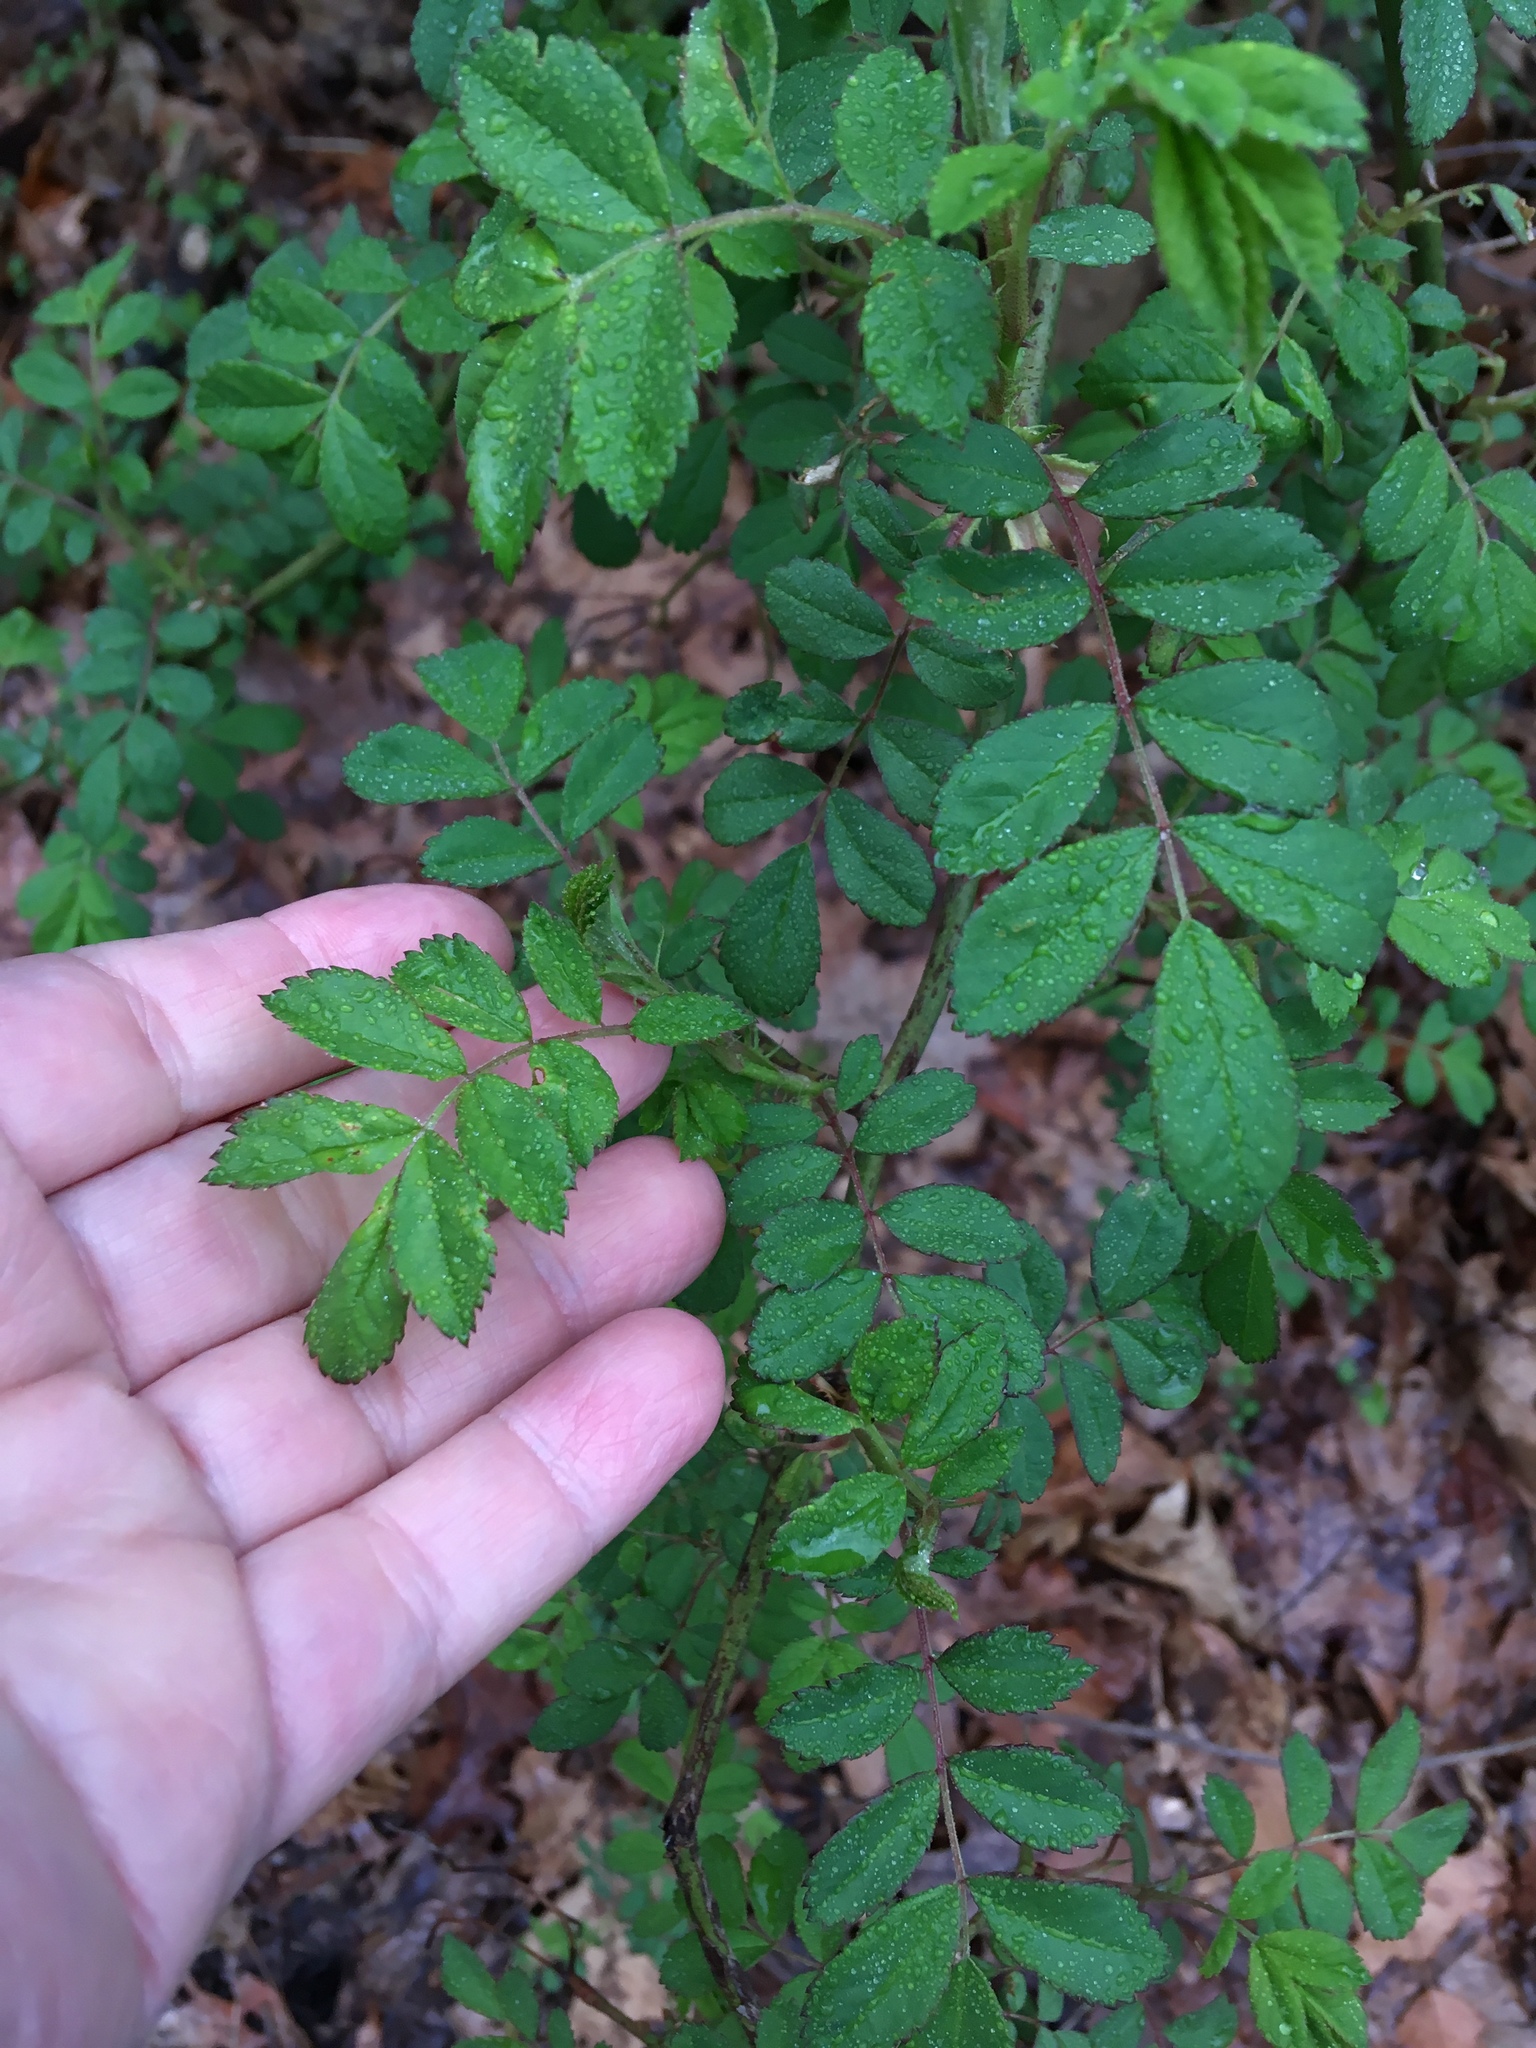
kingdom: Plantae
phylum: Tracheophyta
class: Magnoliopsida
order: Rosales
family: Rosaceae
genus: Rosa
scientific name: Rosa multiflora
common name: Multiflora rose
